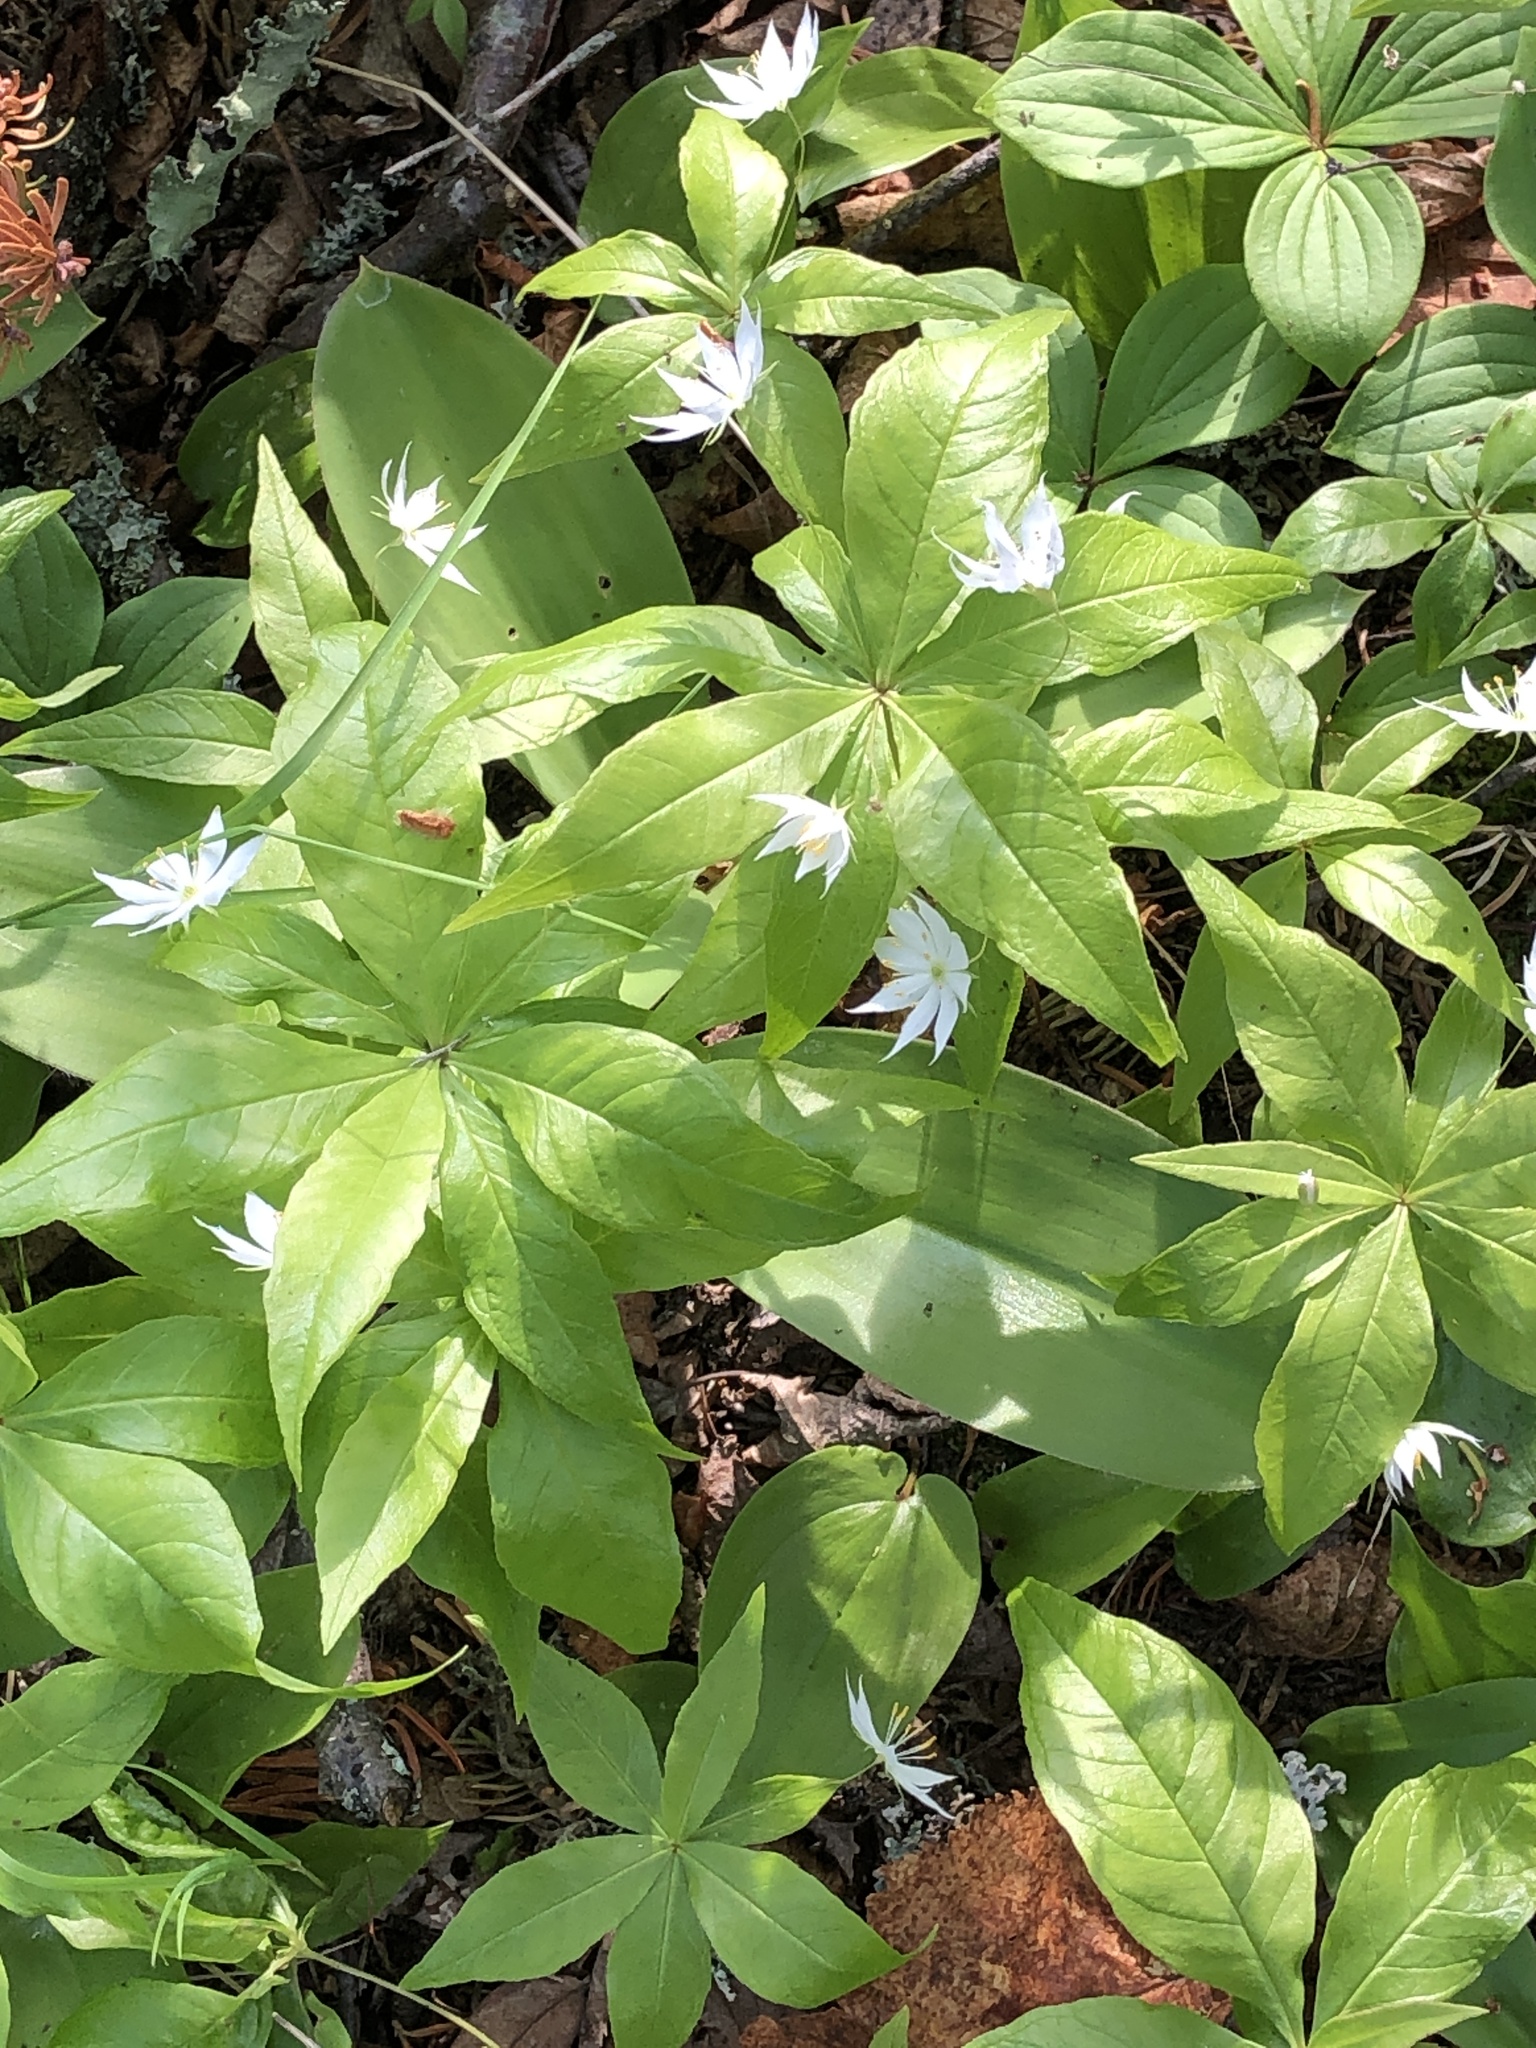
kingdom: Plantae
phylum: Tracheophyta
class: Magnoliopsida
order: Ericales
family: Primulaceae
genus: Lysimachia
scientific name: Lysimachia borealis
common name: American starflower
